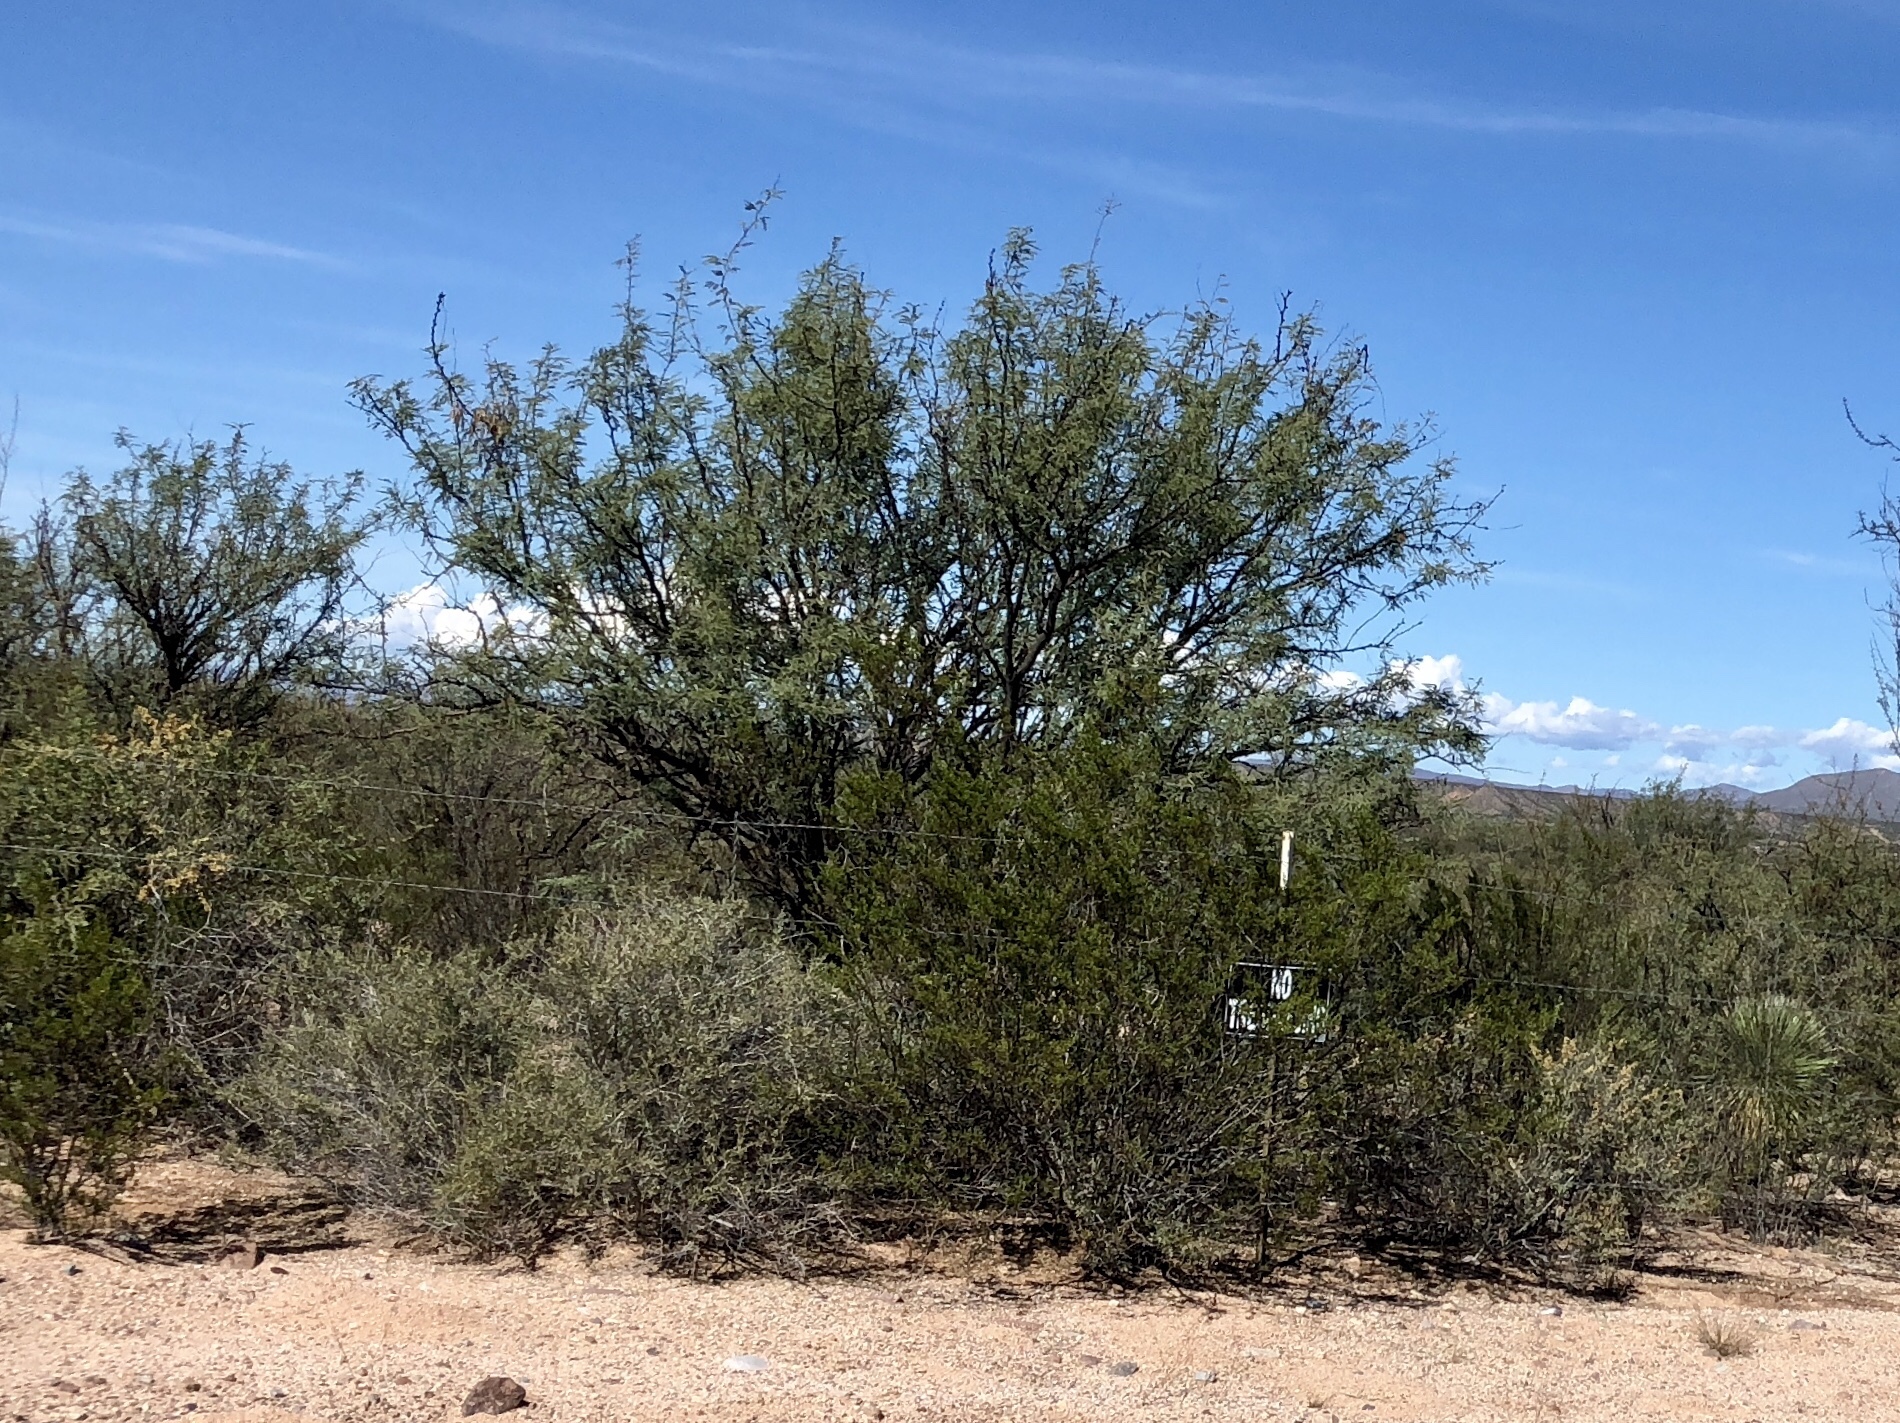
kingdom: Plantae
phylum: Tracheophyta
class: Magnoliopsida
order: Zygophyllales
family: Zygophyllaceae
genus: Larrea
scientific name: Larrea tridentata
